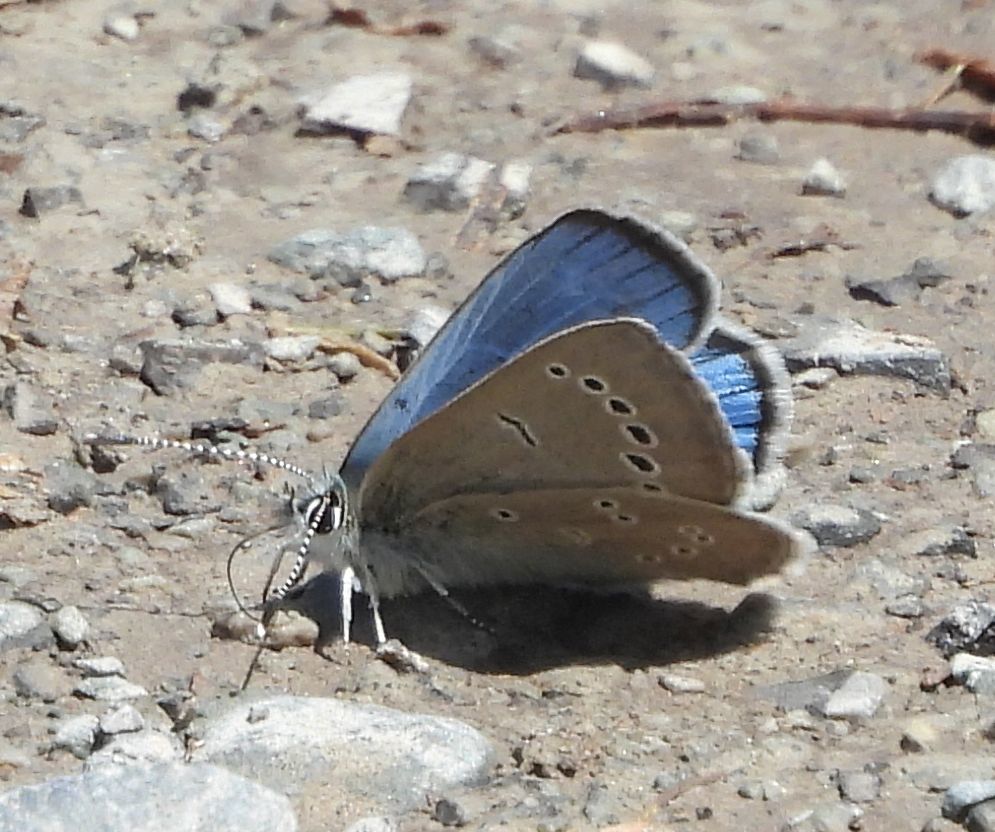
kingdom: Animalia
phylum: Arthropoda
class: Insecta
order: Lepidoptera
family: Lycaenidae
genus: Glaucopsyche
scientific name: Glaucopsyche lygdamus
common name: Silvery blue
